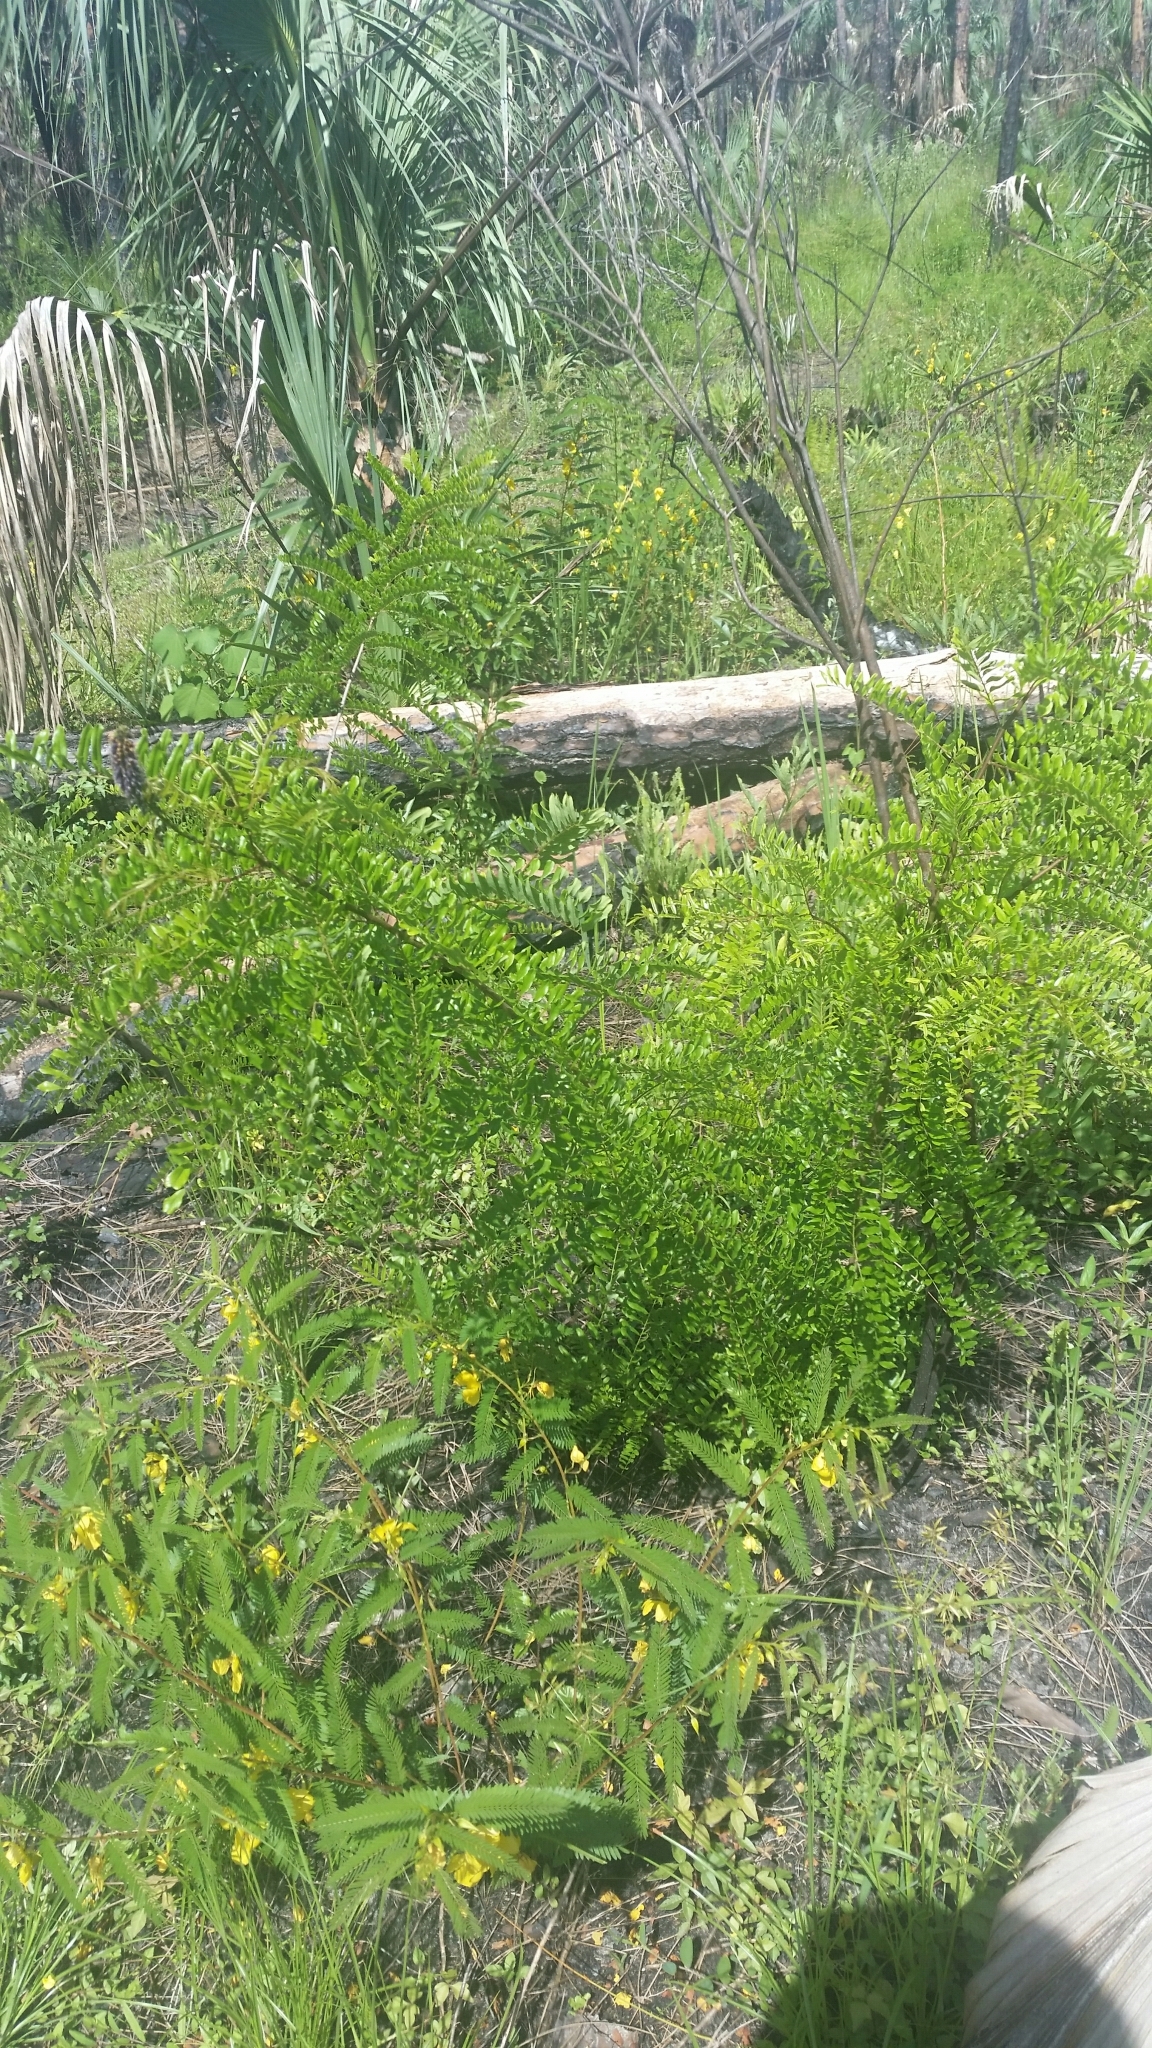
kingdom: Plantae
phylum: Tracheophyta
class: Magnoliopsida
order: Fabales
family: Fabaceae
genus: Amorpha
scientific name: Amorpha fruticosa
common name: False indigo
